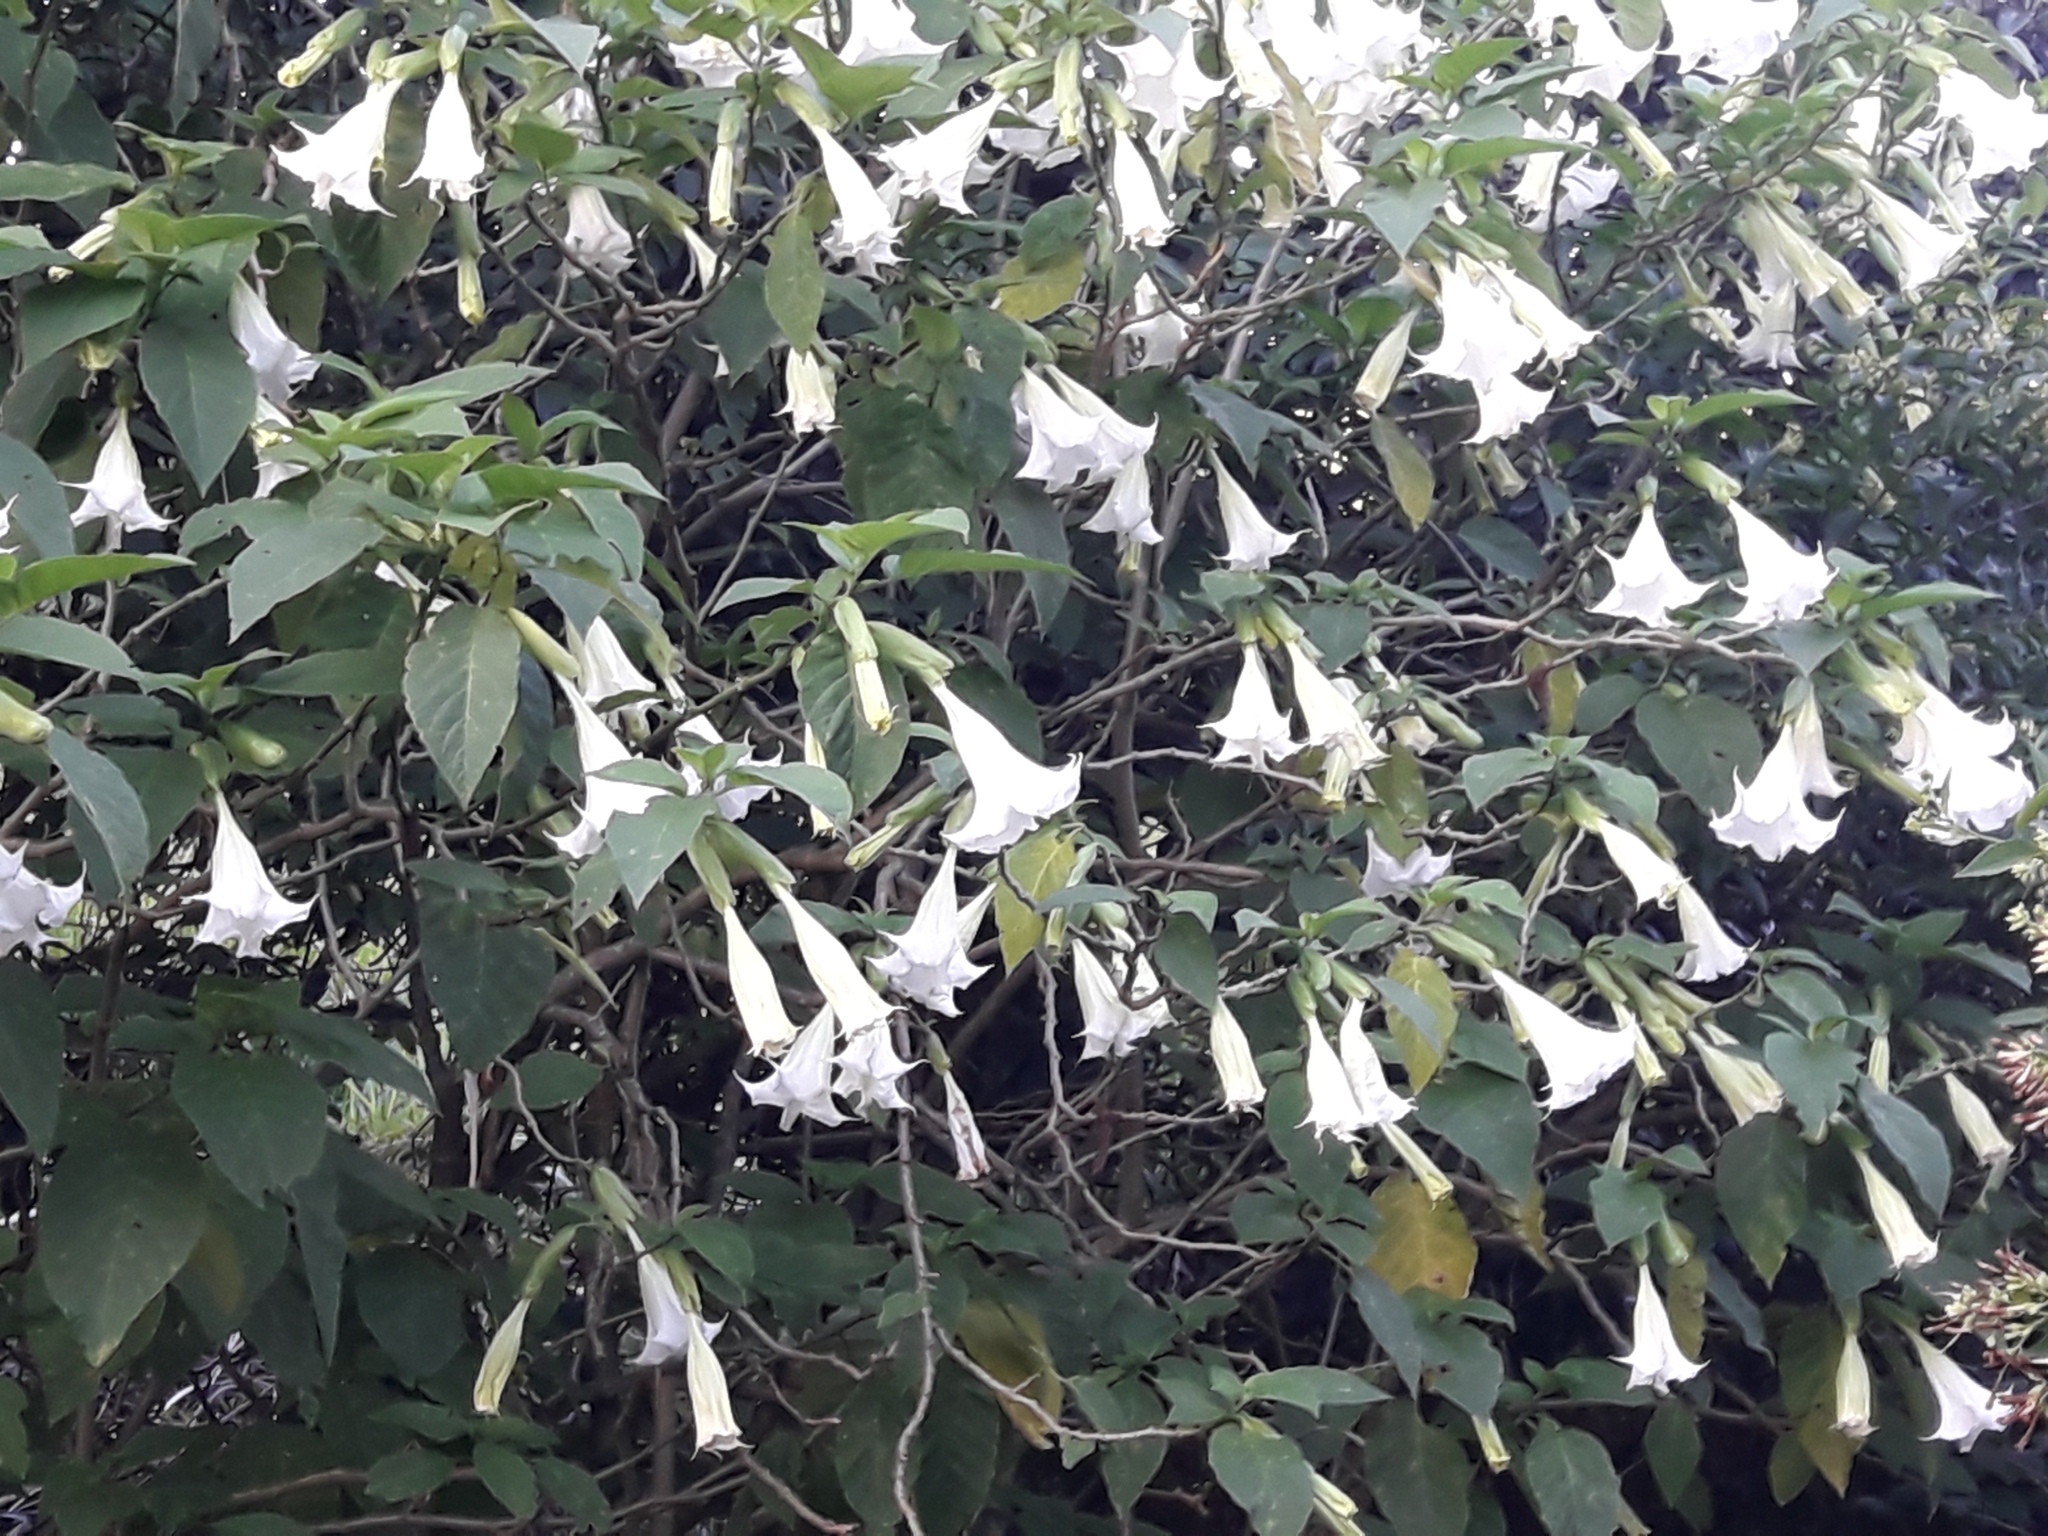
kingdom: Plantae
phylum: Tracheophyta
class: Magnoliopsida
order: Solanales
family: Solanaceae
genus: Brugmansia
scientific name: Brugmansia suaveolens
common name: Angel's tears
